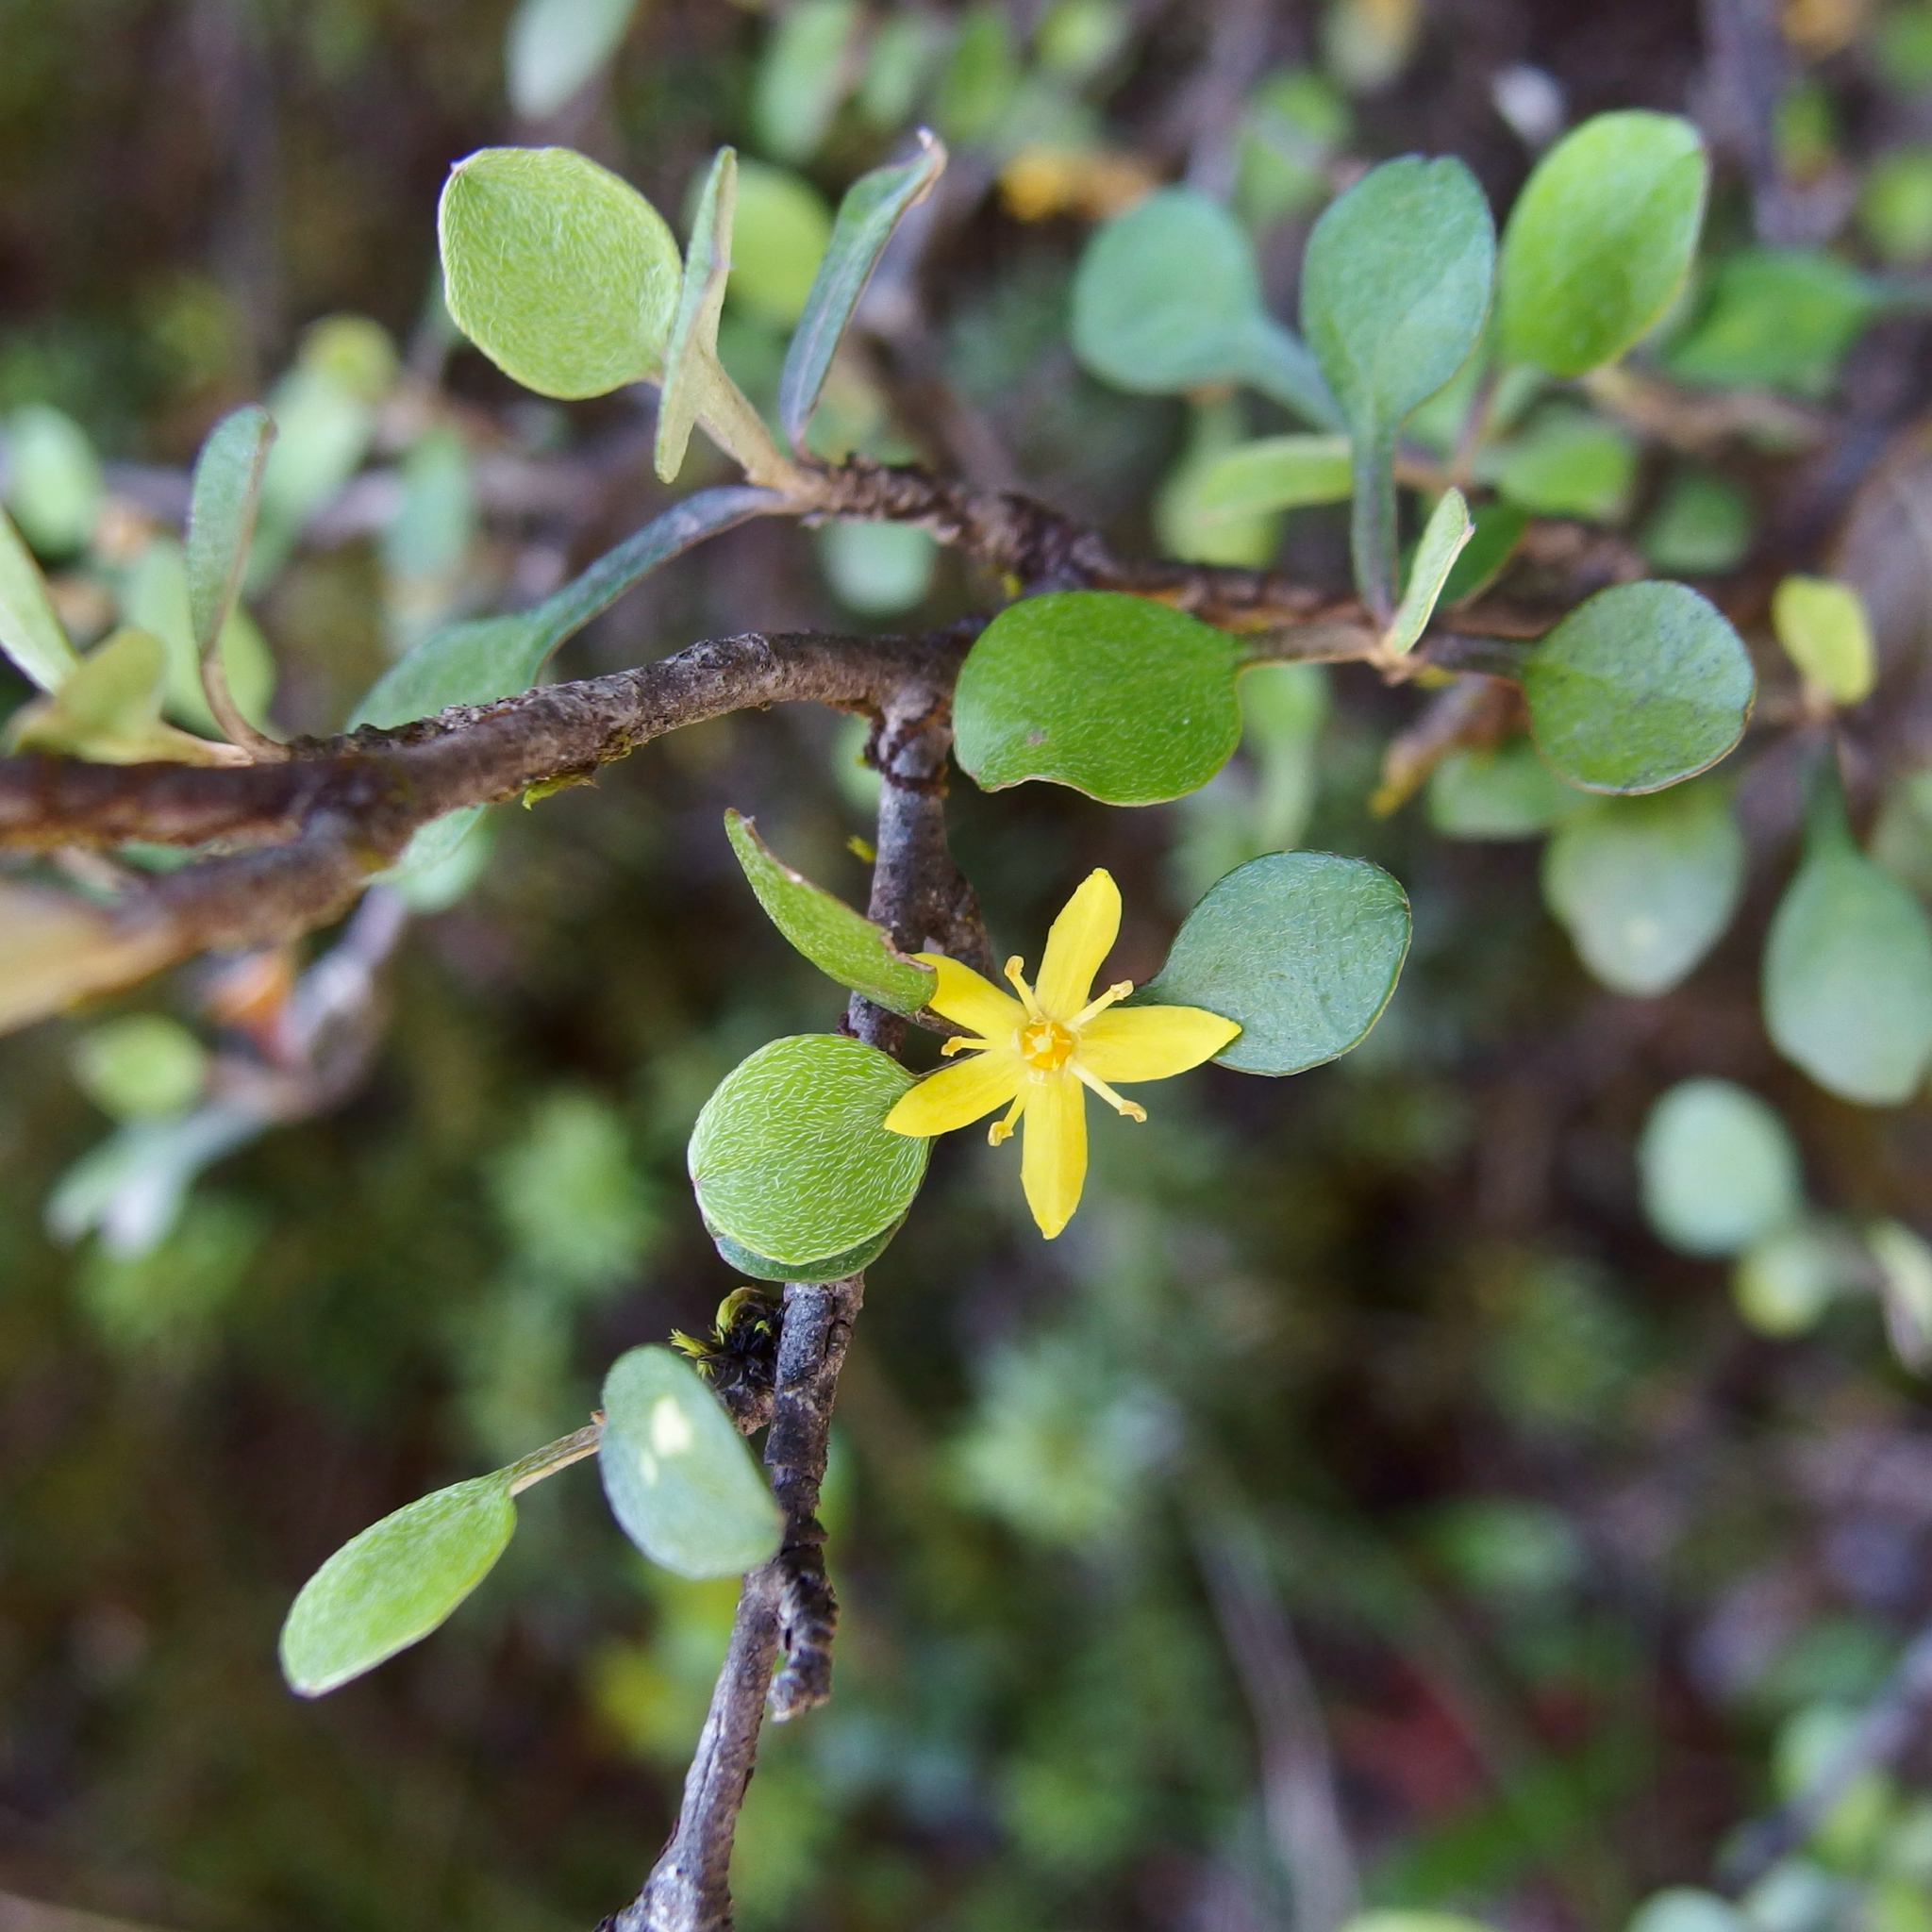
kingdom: Plantae
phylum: Tracheophyta
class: Magnoliopsida
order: Asterales
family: Argophyllaceae
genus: Corokia
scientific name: Corokia cotoneaster
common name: Wire nettingbush
